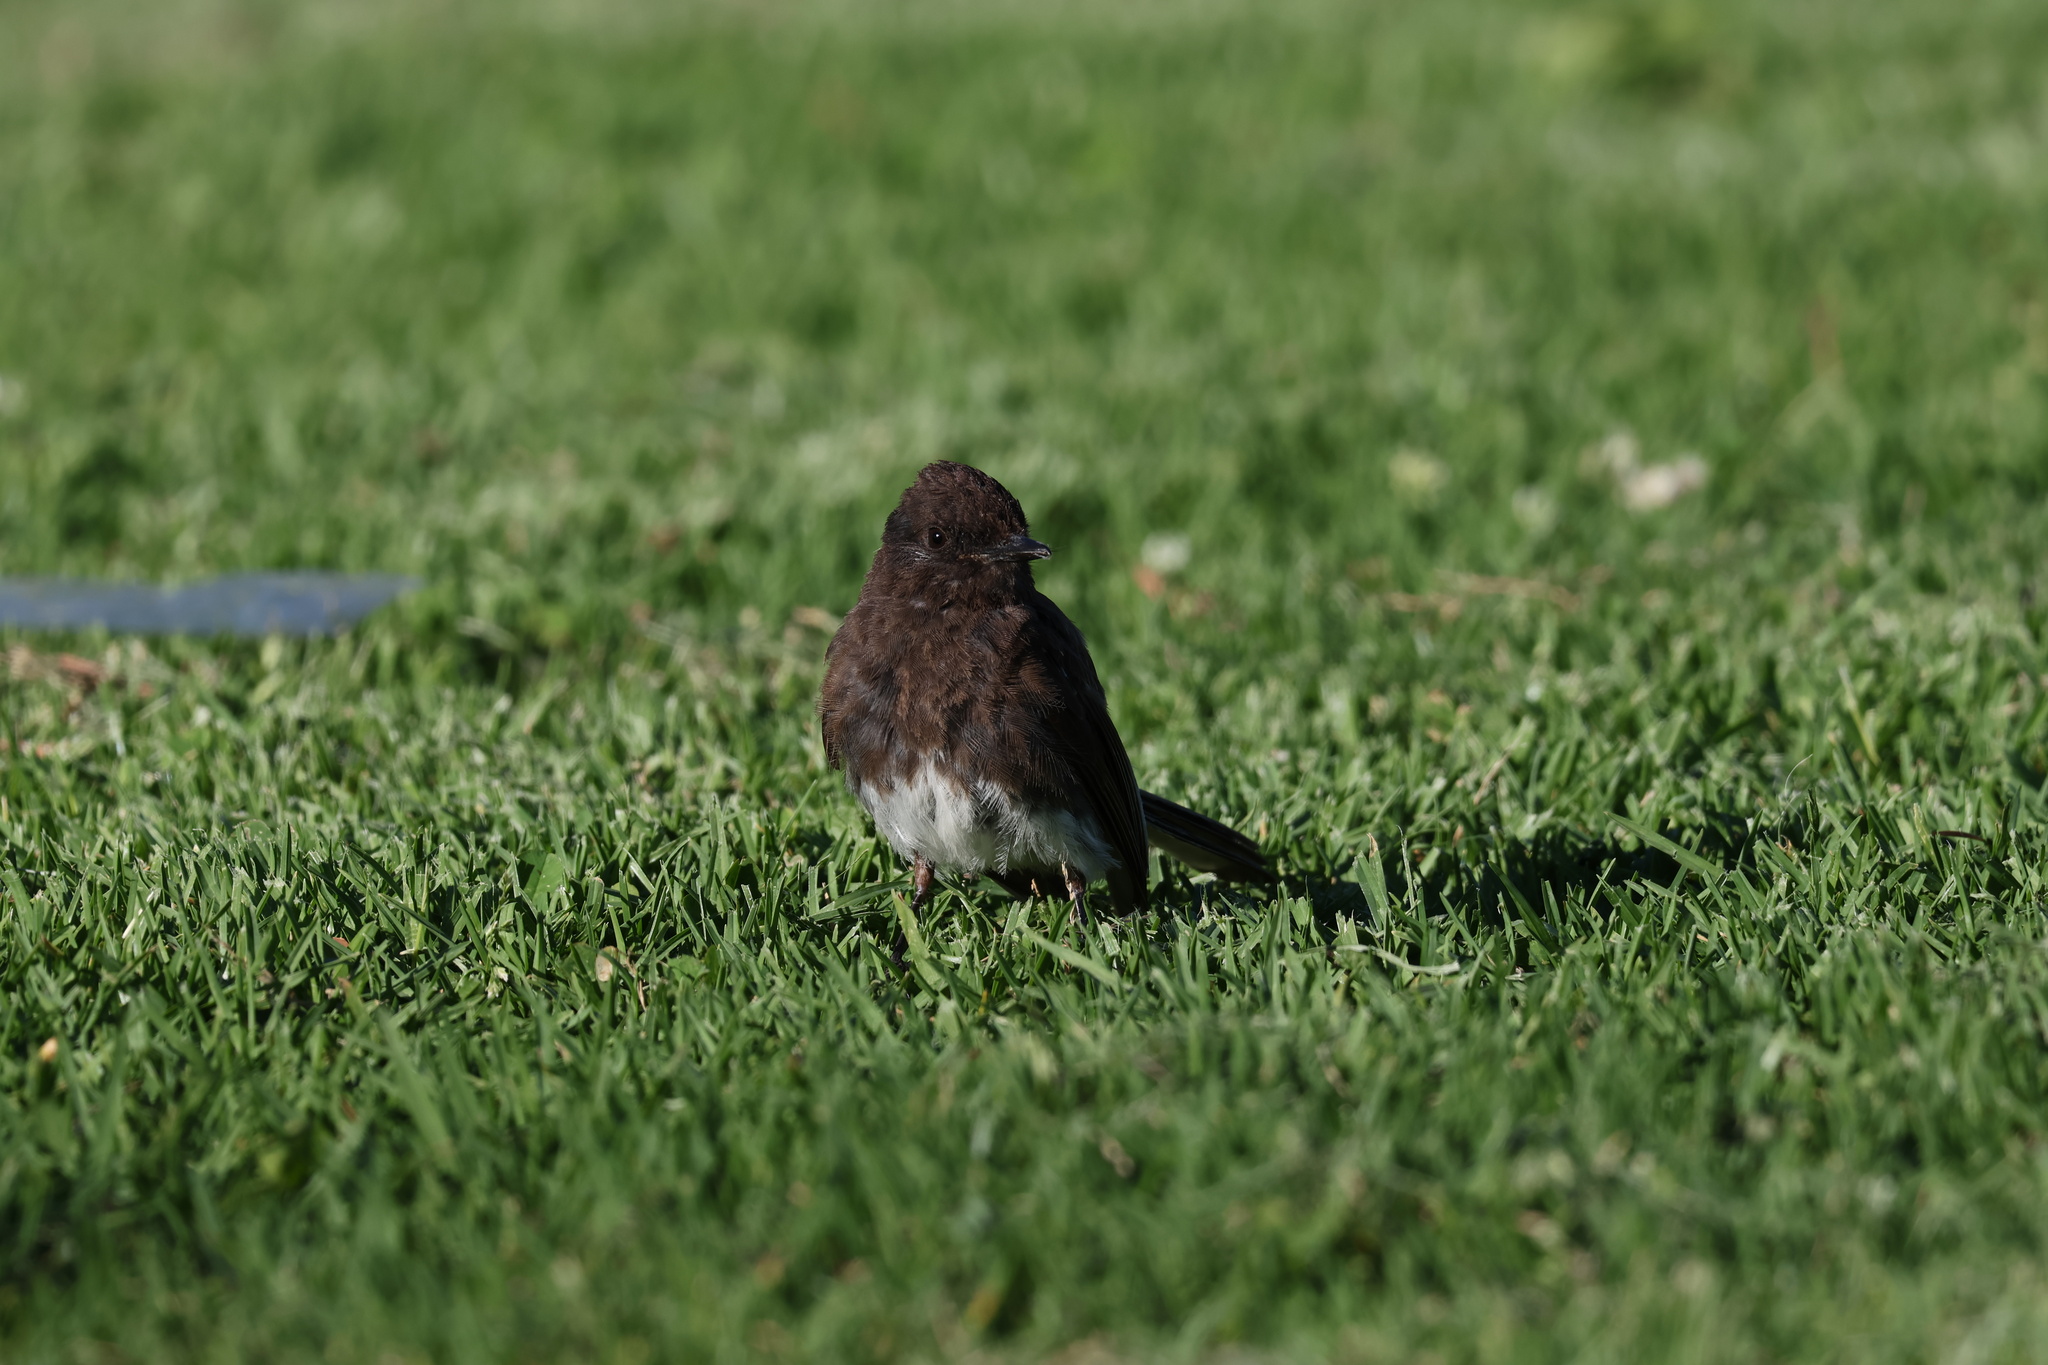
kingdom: Animalia
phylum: Chordata
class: Aves
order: Passeriformes
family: Tyrannidae
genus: Sayornis
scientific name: Sayornis nigricans
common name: Black phoebe
